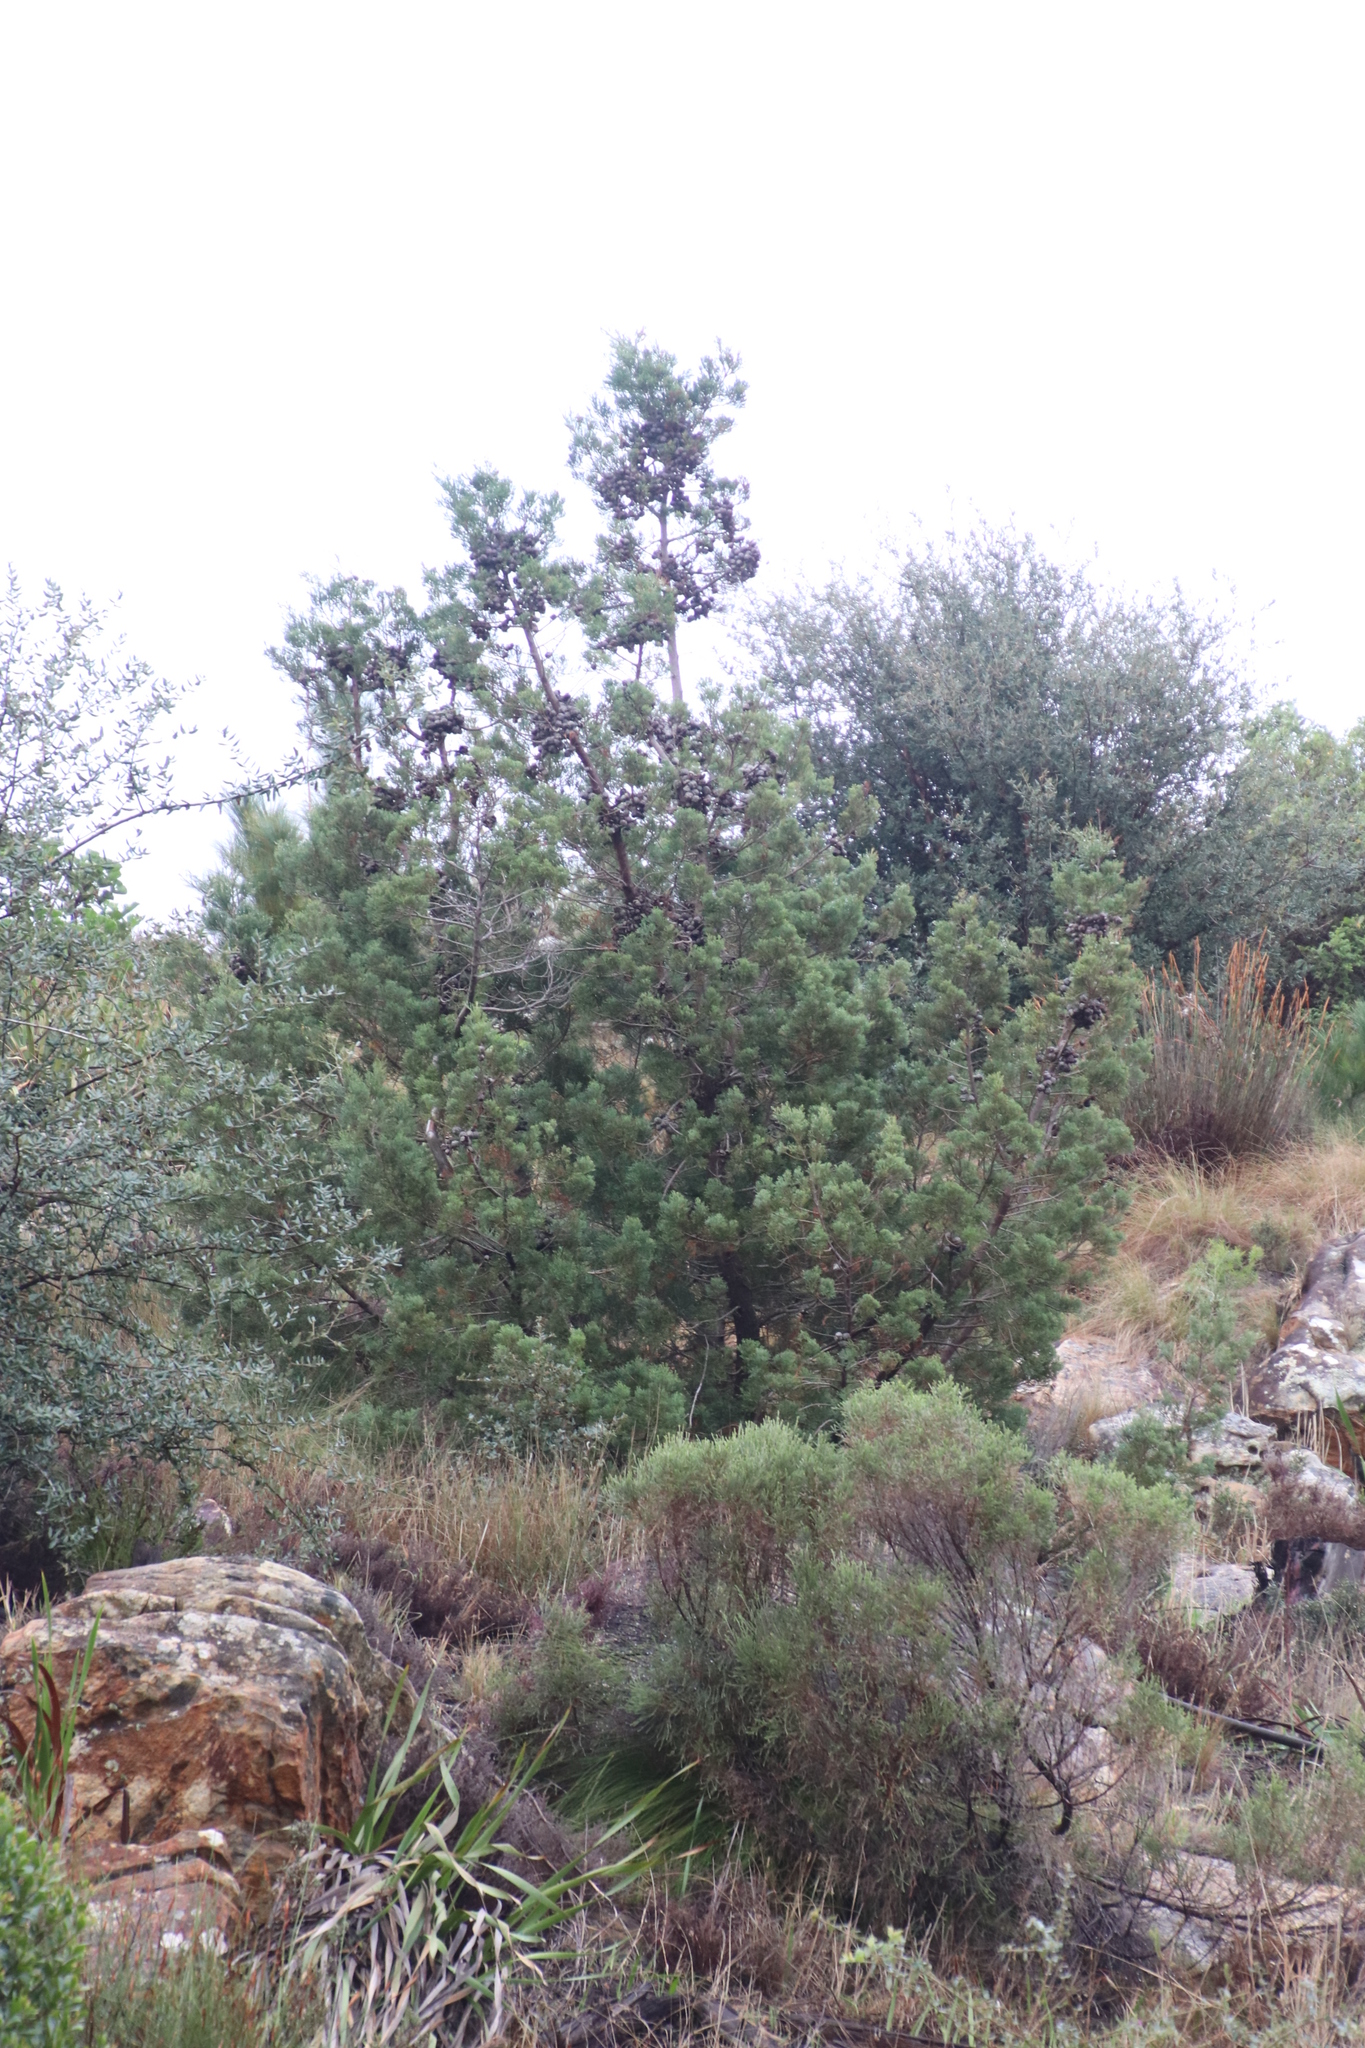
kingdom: Plantae
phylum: Tracheophyta
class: Pinopsida
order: Pinales
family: Cupressaceae
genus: Widdringtonia
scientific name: Widdringtonia nodiflora
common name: Cape cypress
